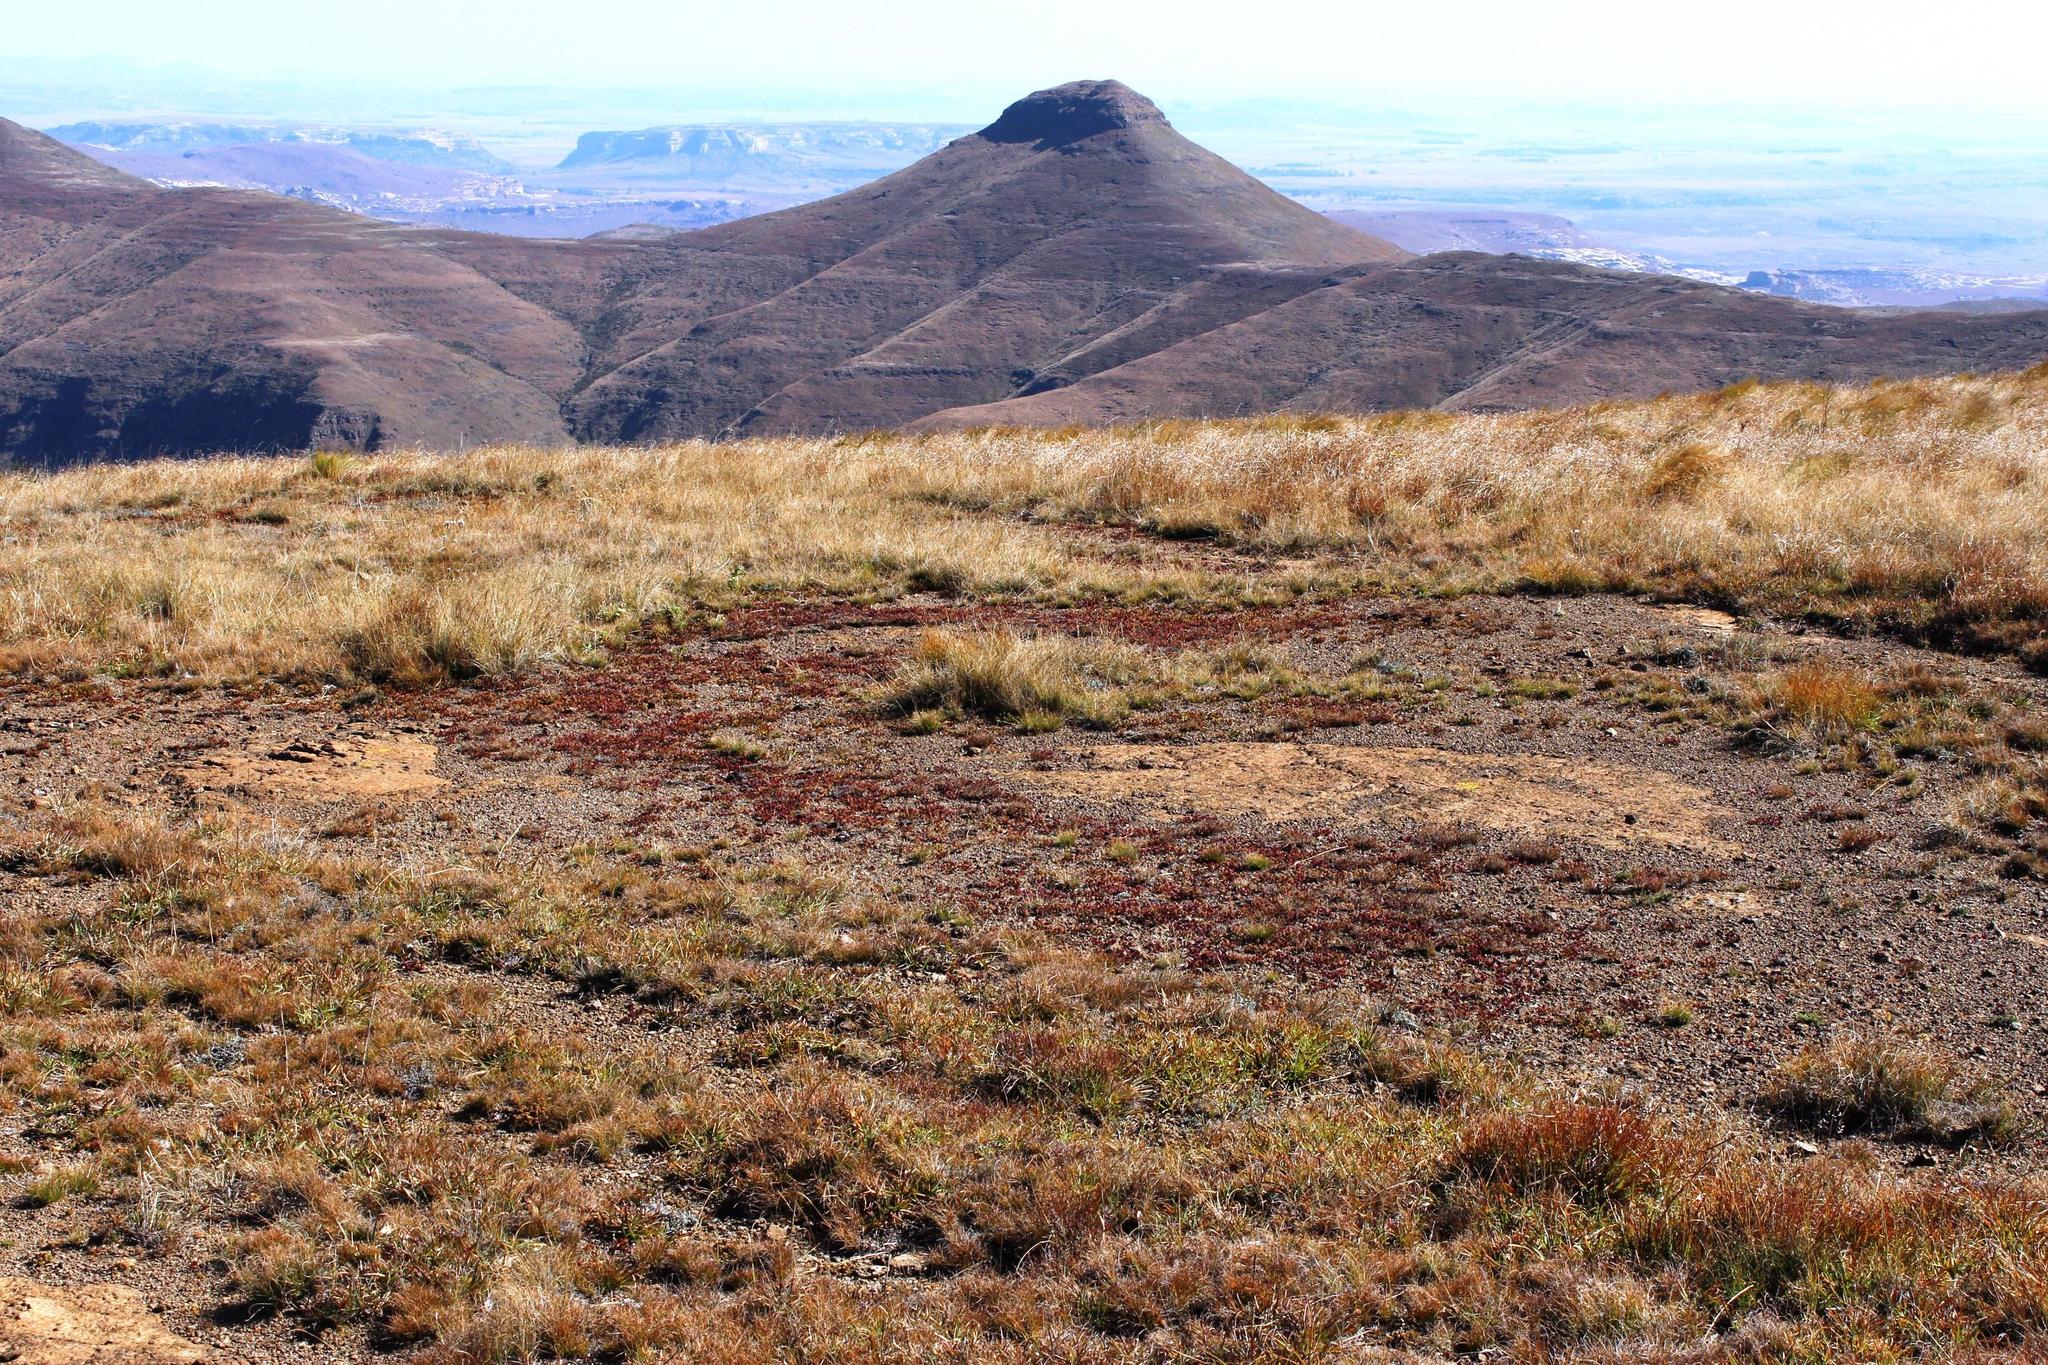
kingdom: Plantae
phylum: Tracheophyta
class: Magnoliopsida
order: Saxifragales
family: Crassulaceae
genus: Crassula
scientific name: Crassula dependens
